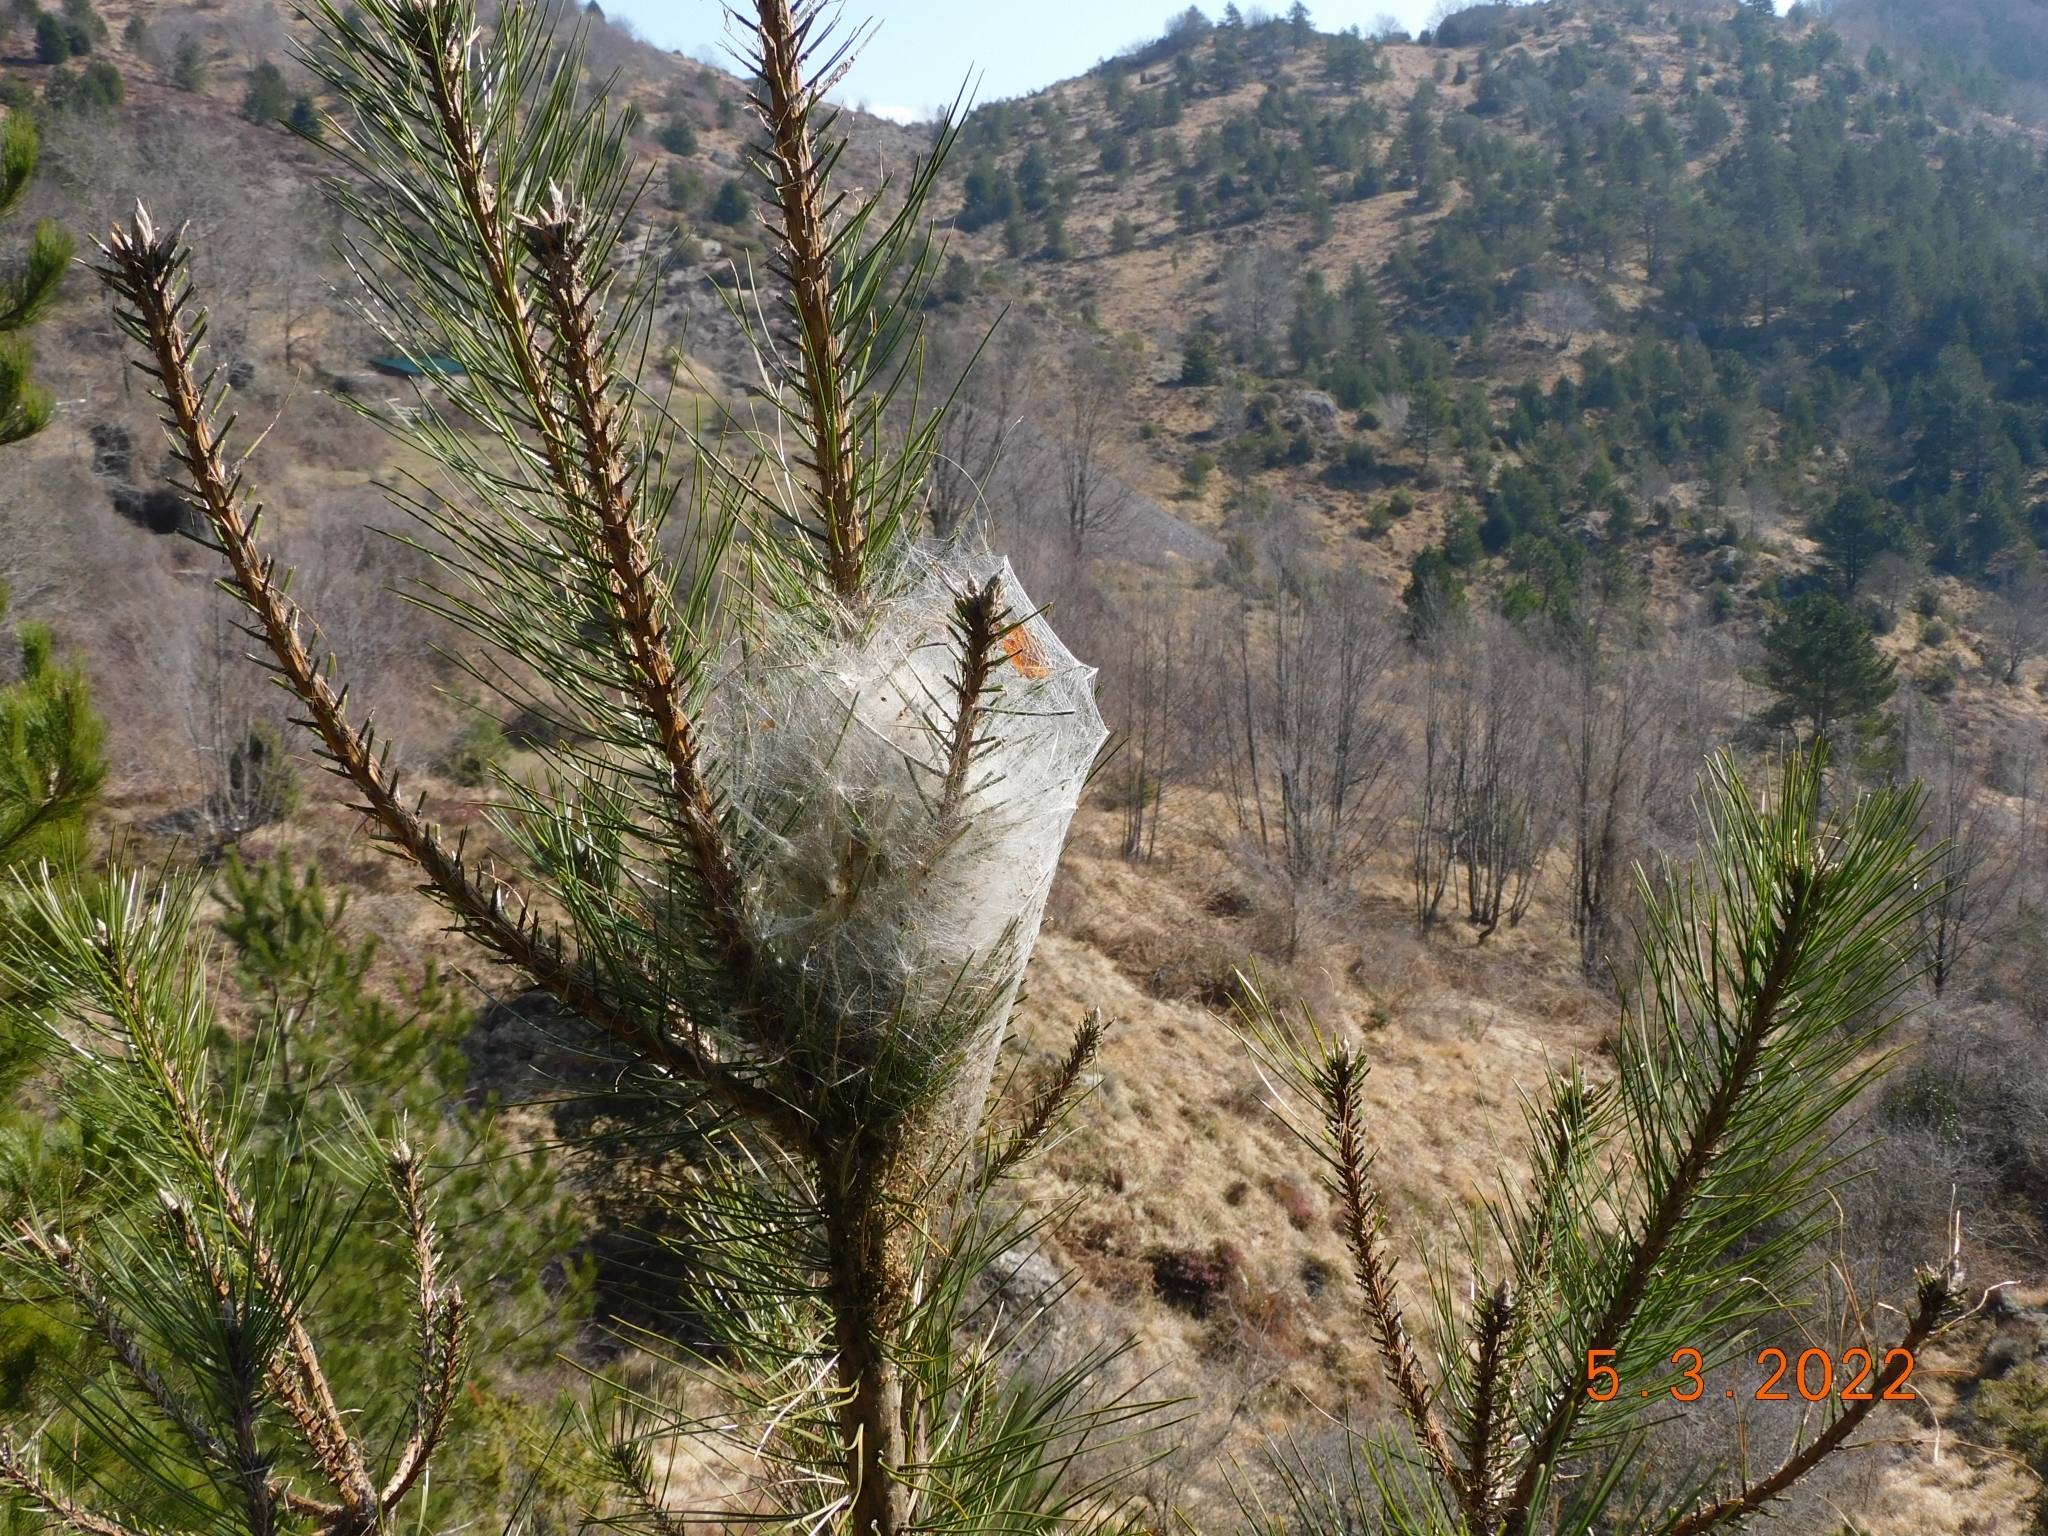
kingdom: Animalia
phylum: Arthropoda
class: Insecta
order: Lepidoptera
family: Notodontidae
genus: Thaumetopoea
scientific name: Thaumetopoea pityocampa
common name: Pine processionary
